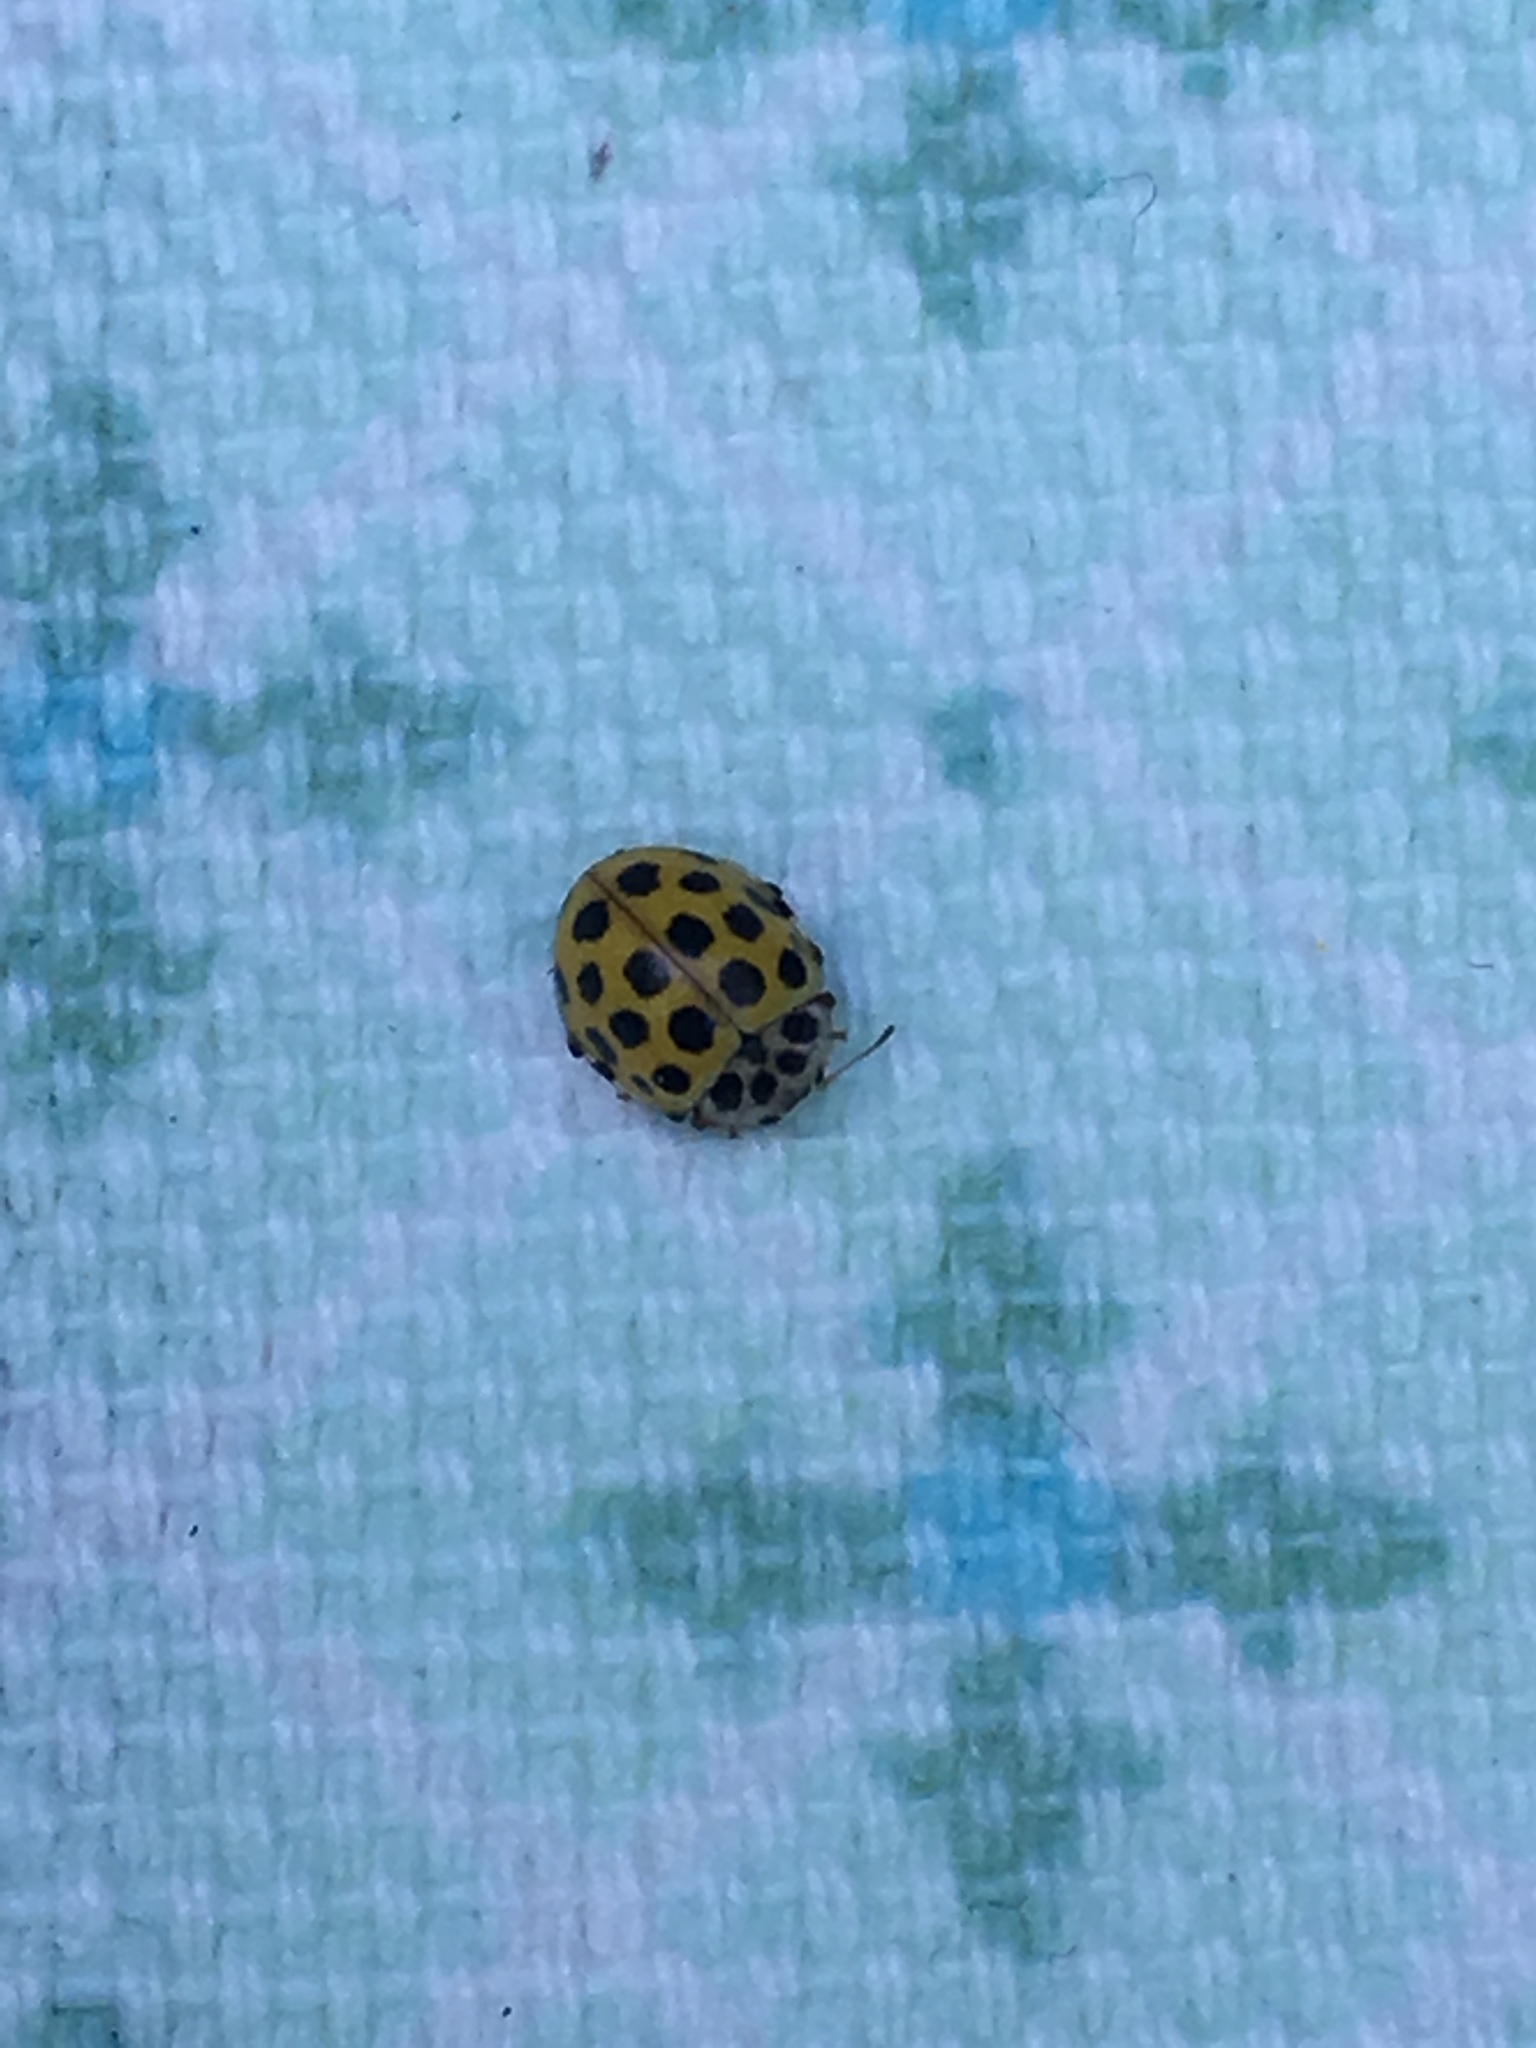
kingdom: Animalia
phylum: Arthropoda
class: Insecta
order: Coleoptera
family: Coccinellidae
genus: Psyllobora
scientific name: Psyllobora vigintiduopunctata
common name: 22-spot ladybird
